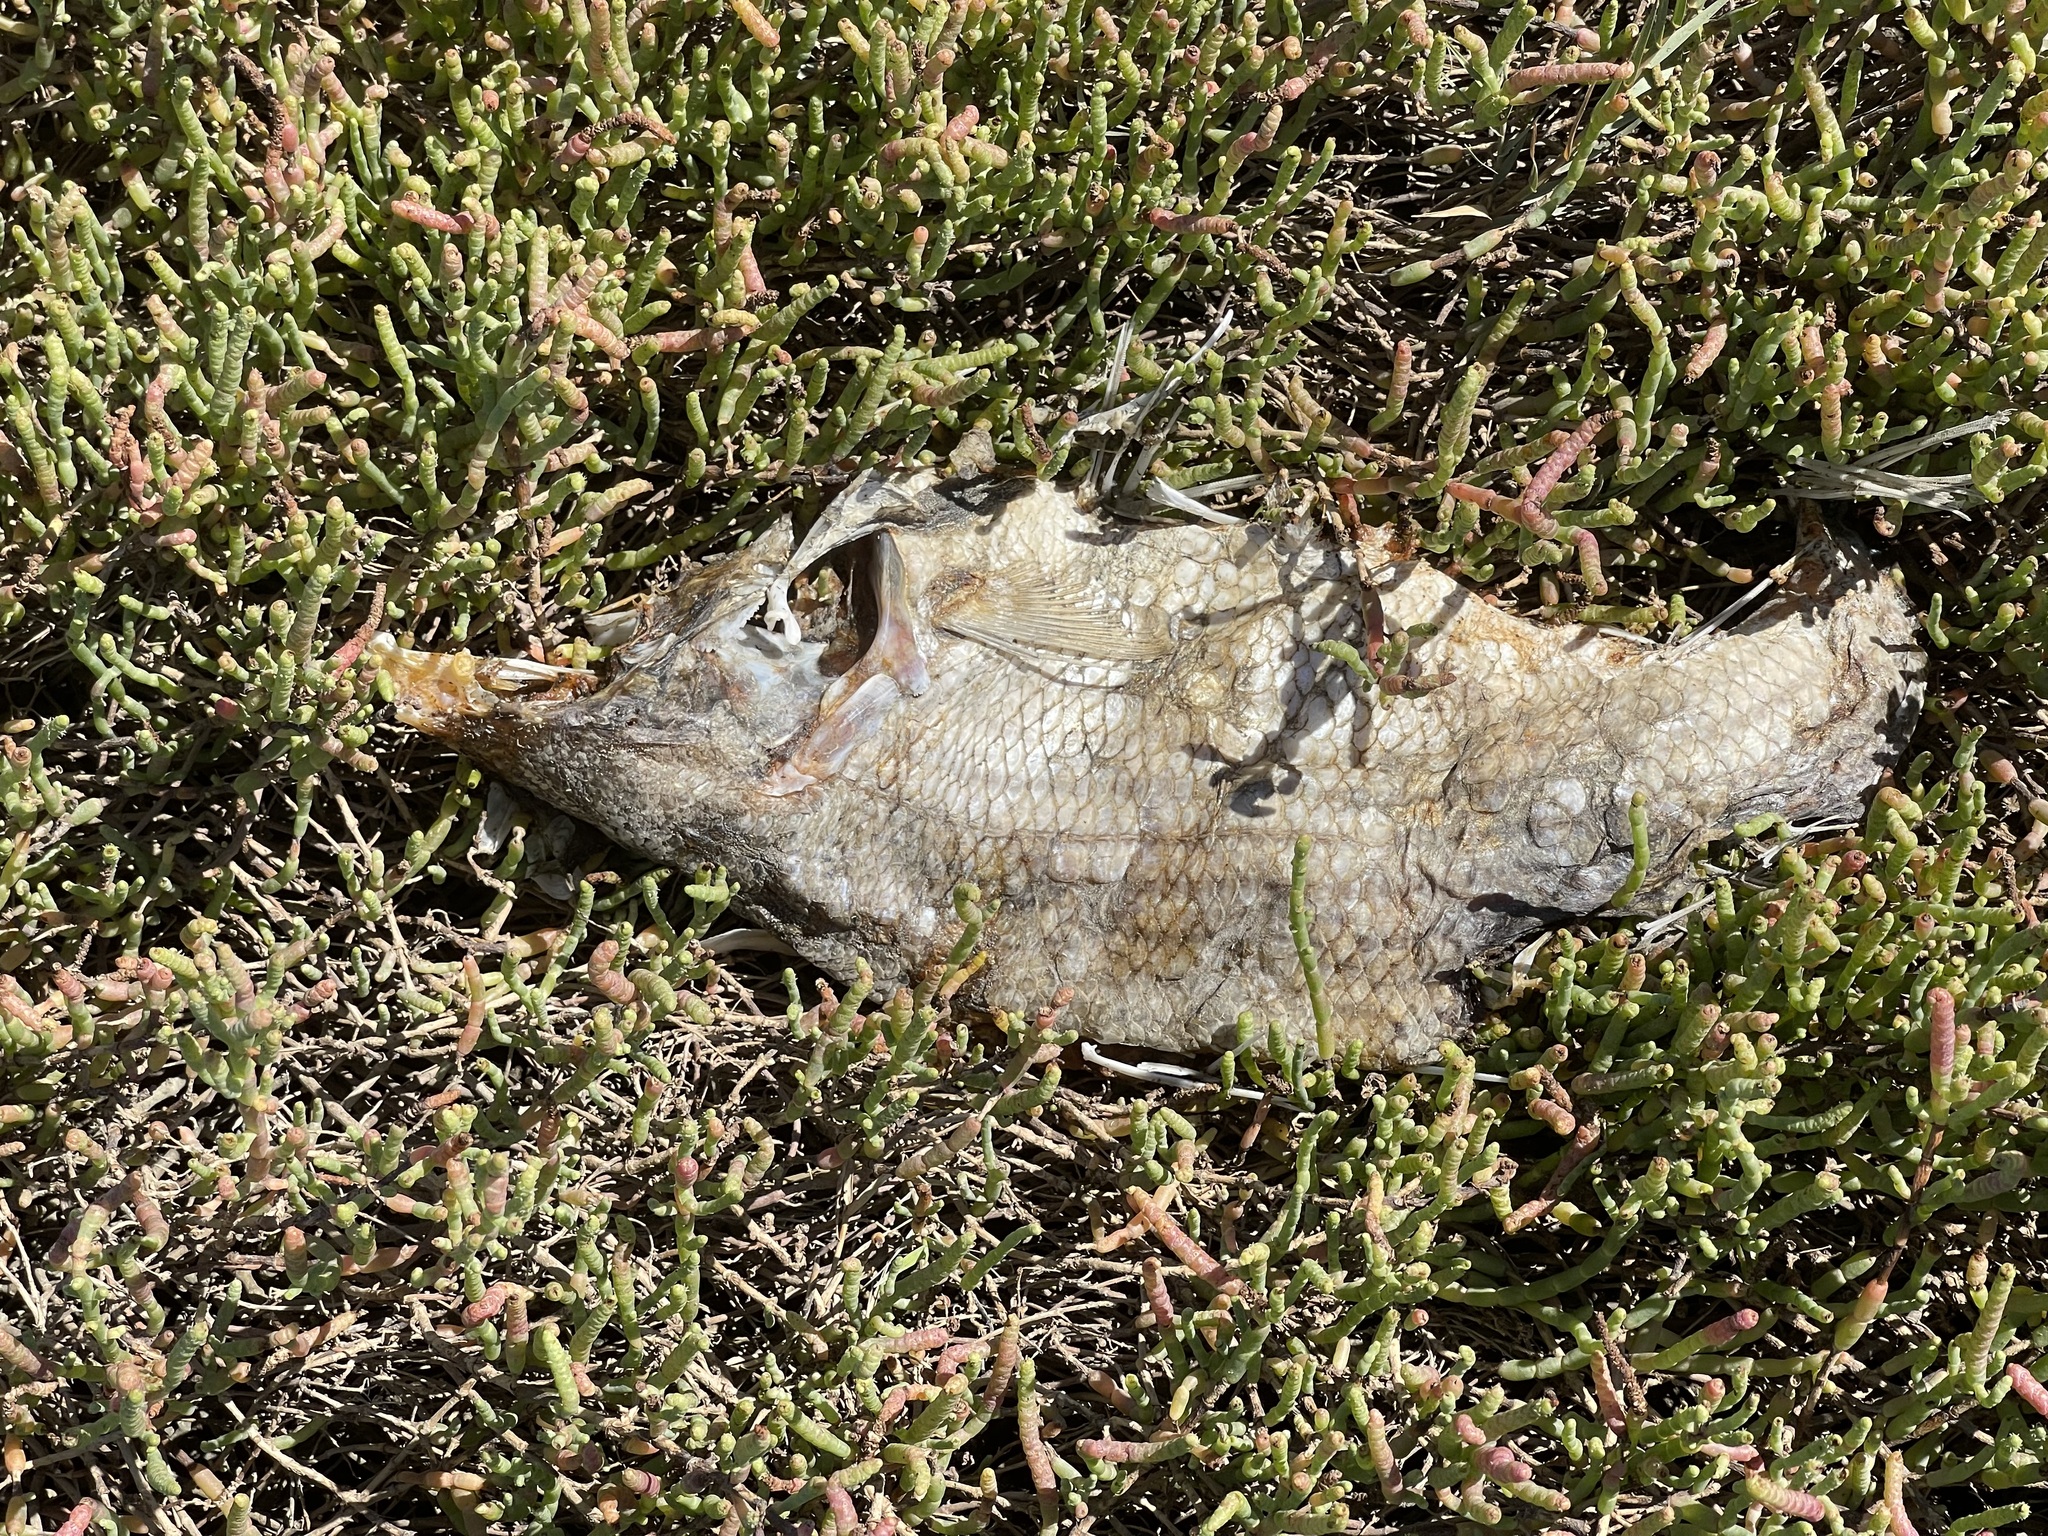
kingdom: Animalia
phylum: Chordata
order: Perciformes
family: Moronidae
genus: Morone
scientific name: Morone saxatilis
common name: Striped bass
